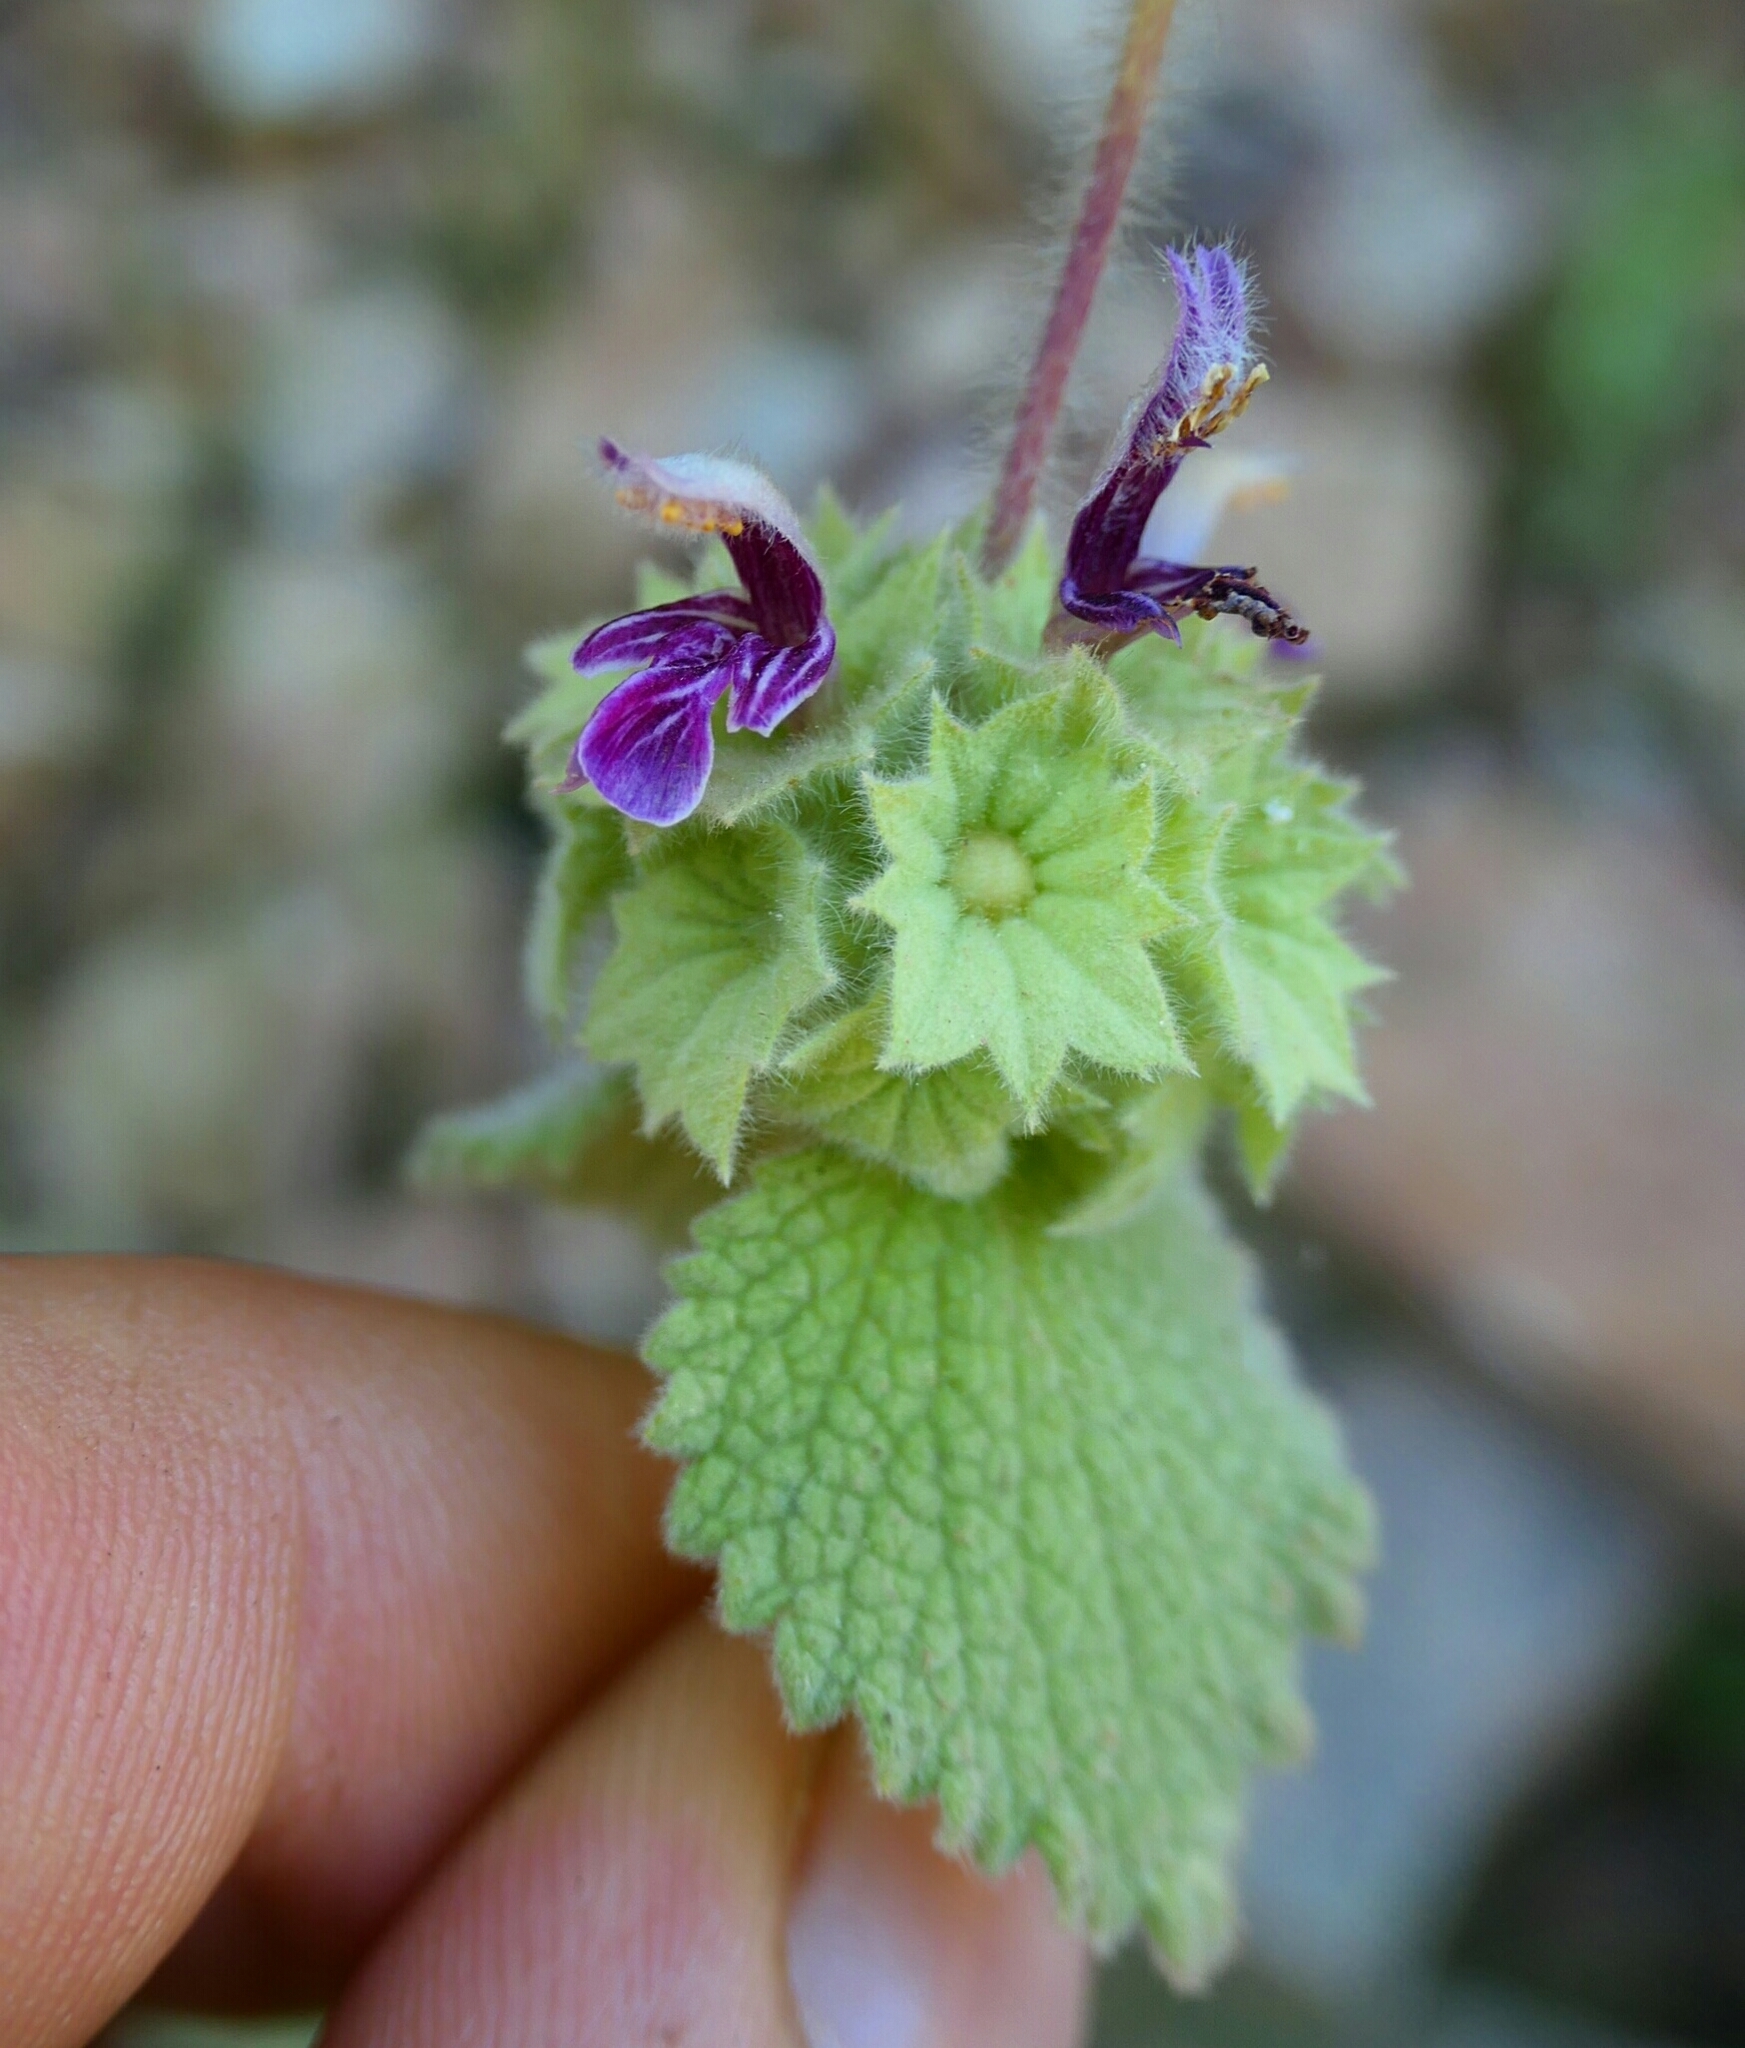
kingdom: Plantae
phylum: Tracheophyta
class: Magnoliopsida
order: Lamiales
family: Lamiaceae
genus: Pseudodictamnus
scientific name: Pseudodictamnus hirsutus
